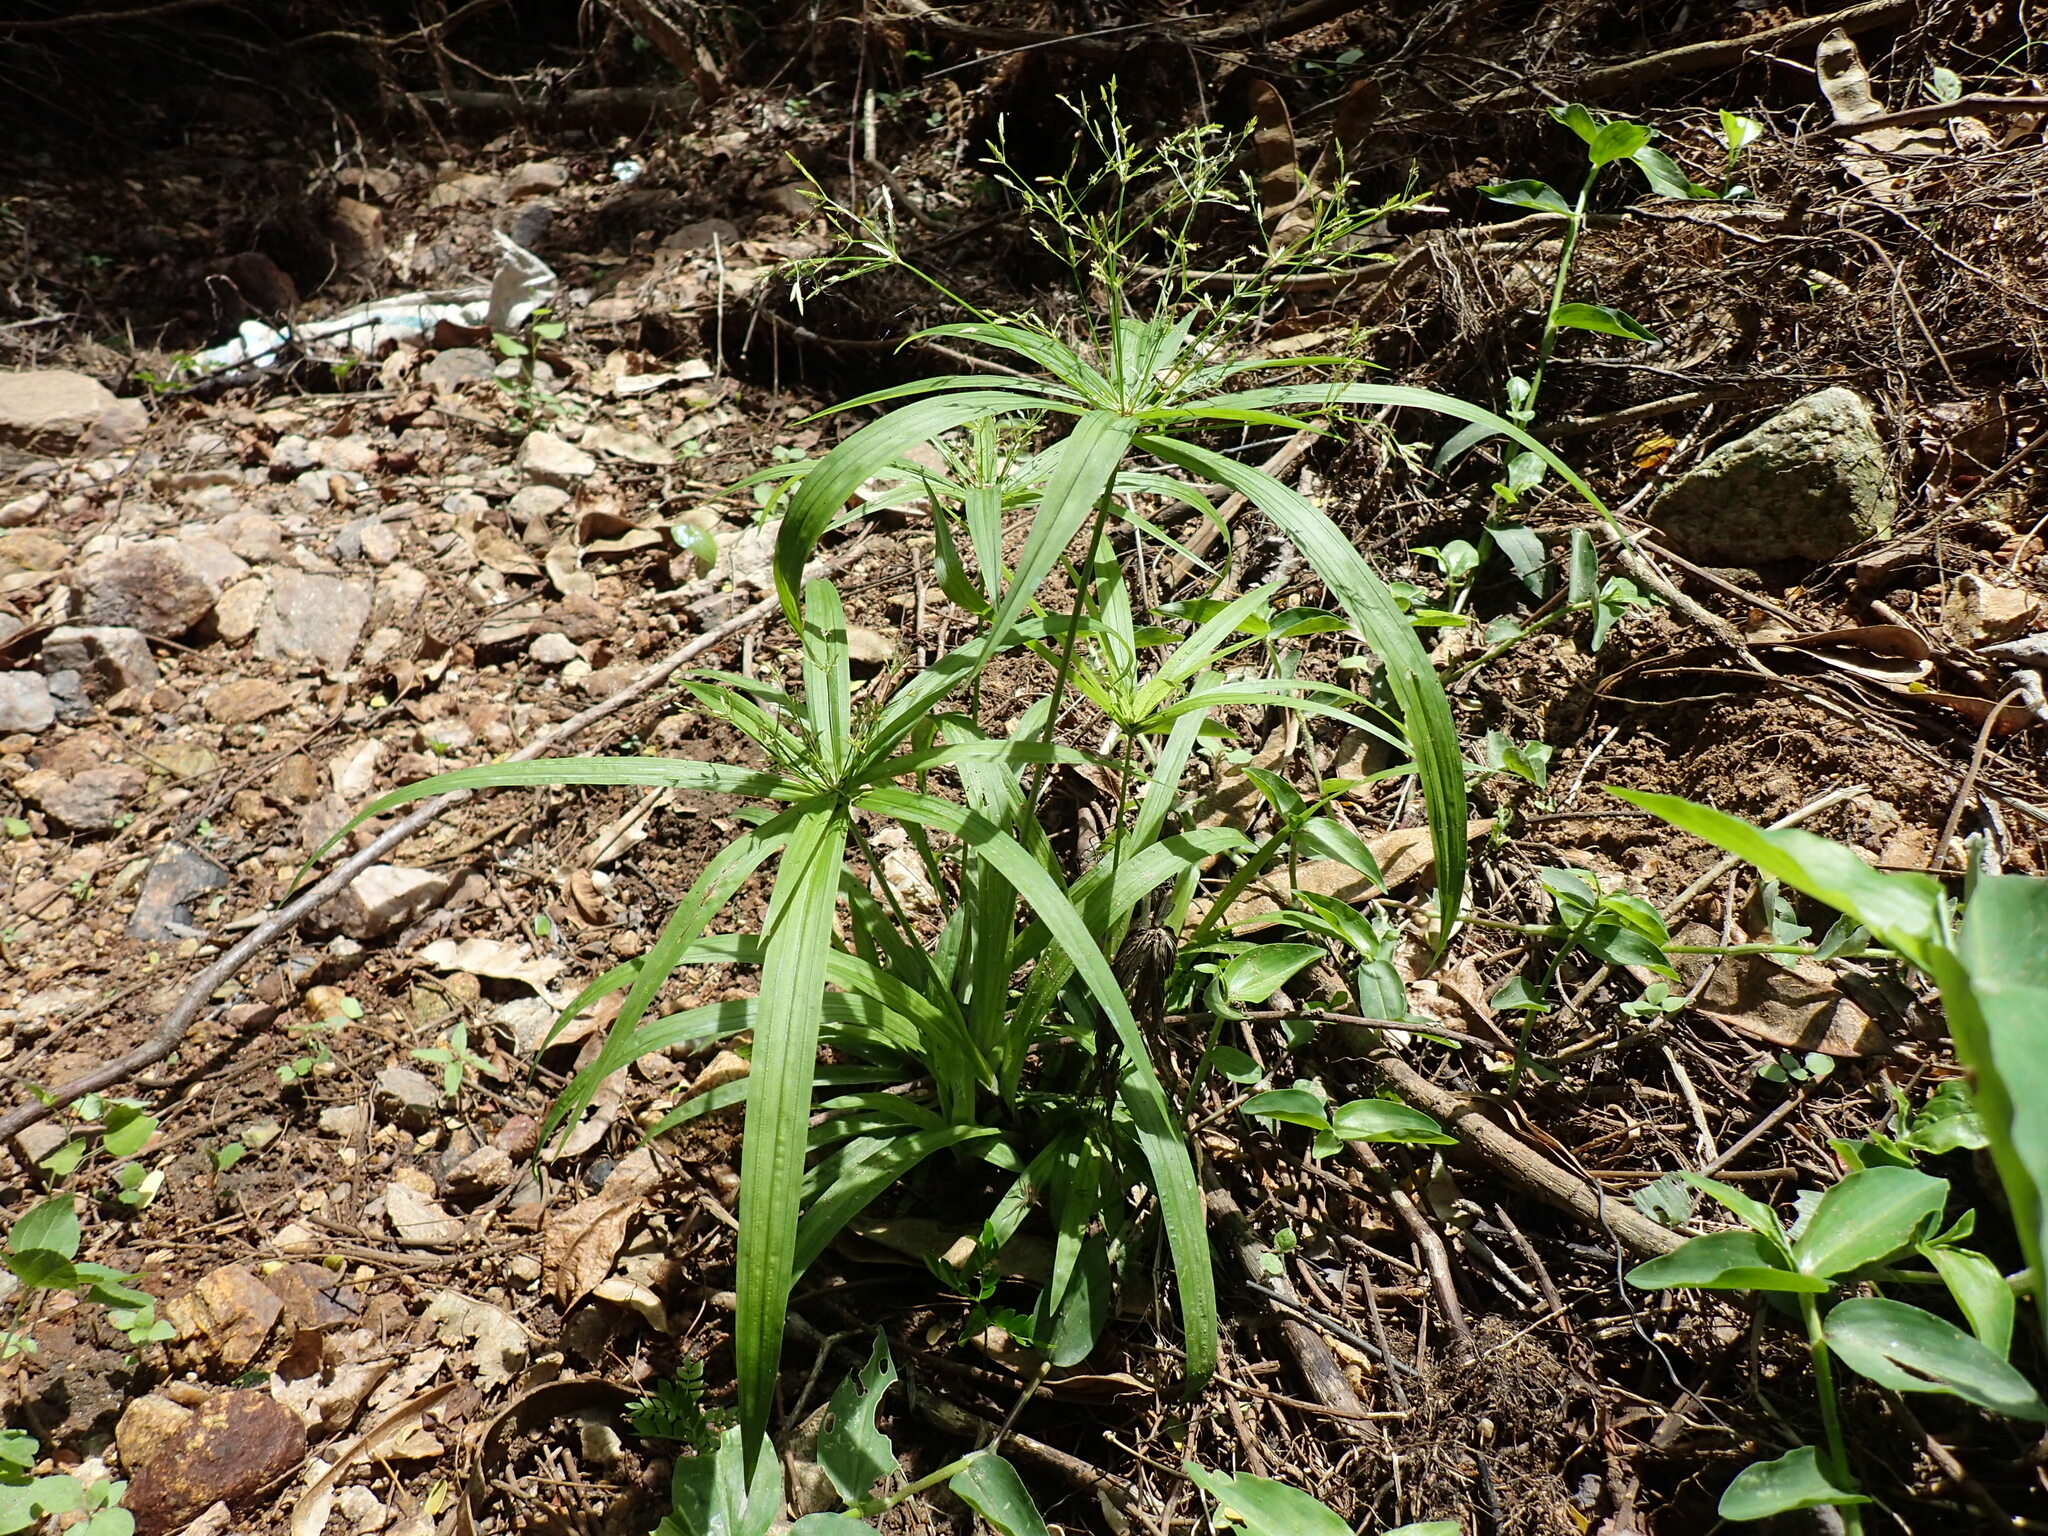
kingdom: Plantae
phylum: Tracheophyta
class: Liliopsida
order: Poales
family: Cyperaceae
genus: Cyperus
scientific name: Cyperus albostriatus
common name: Dwarf umbrella-grass
